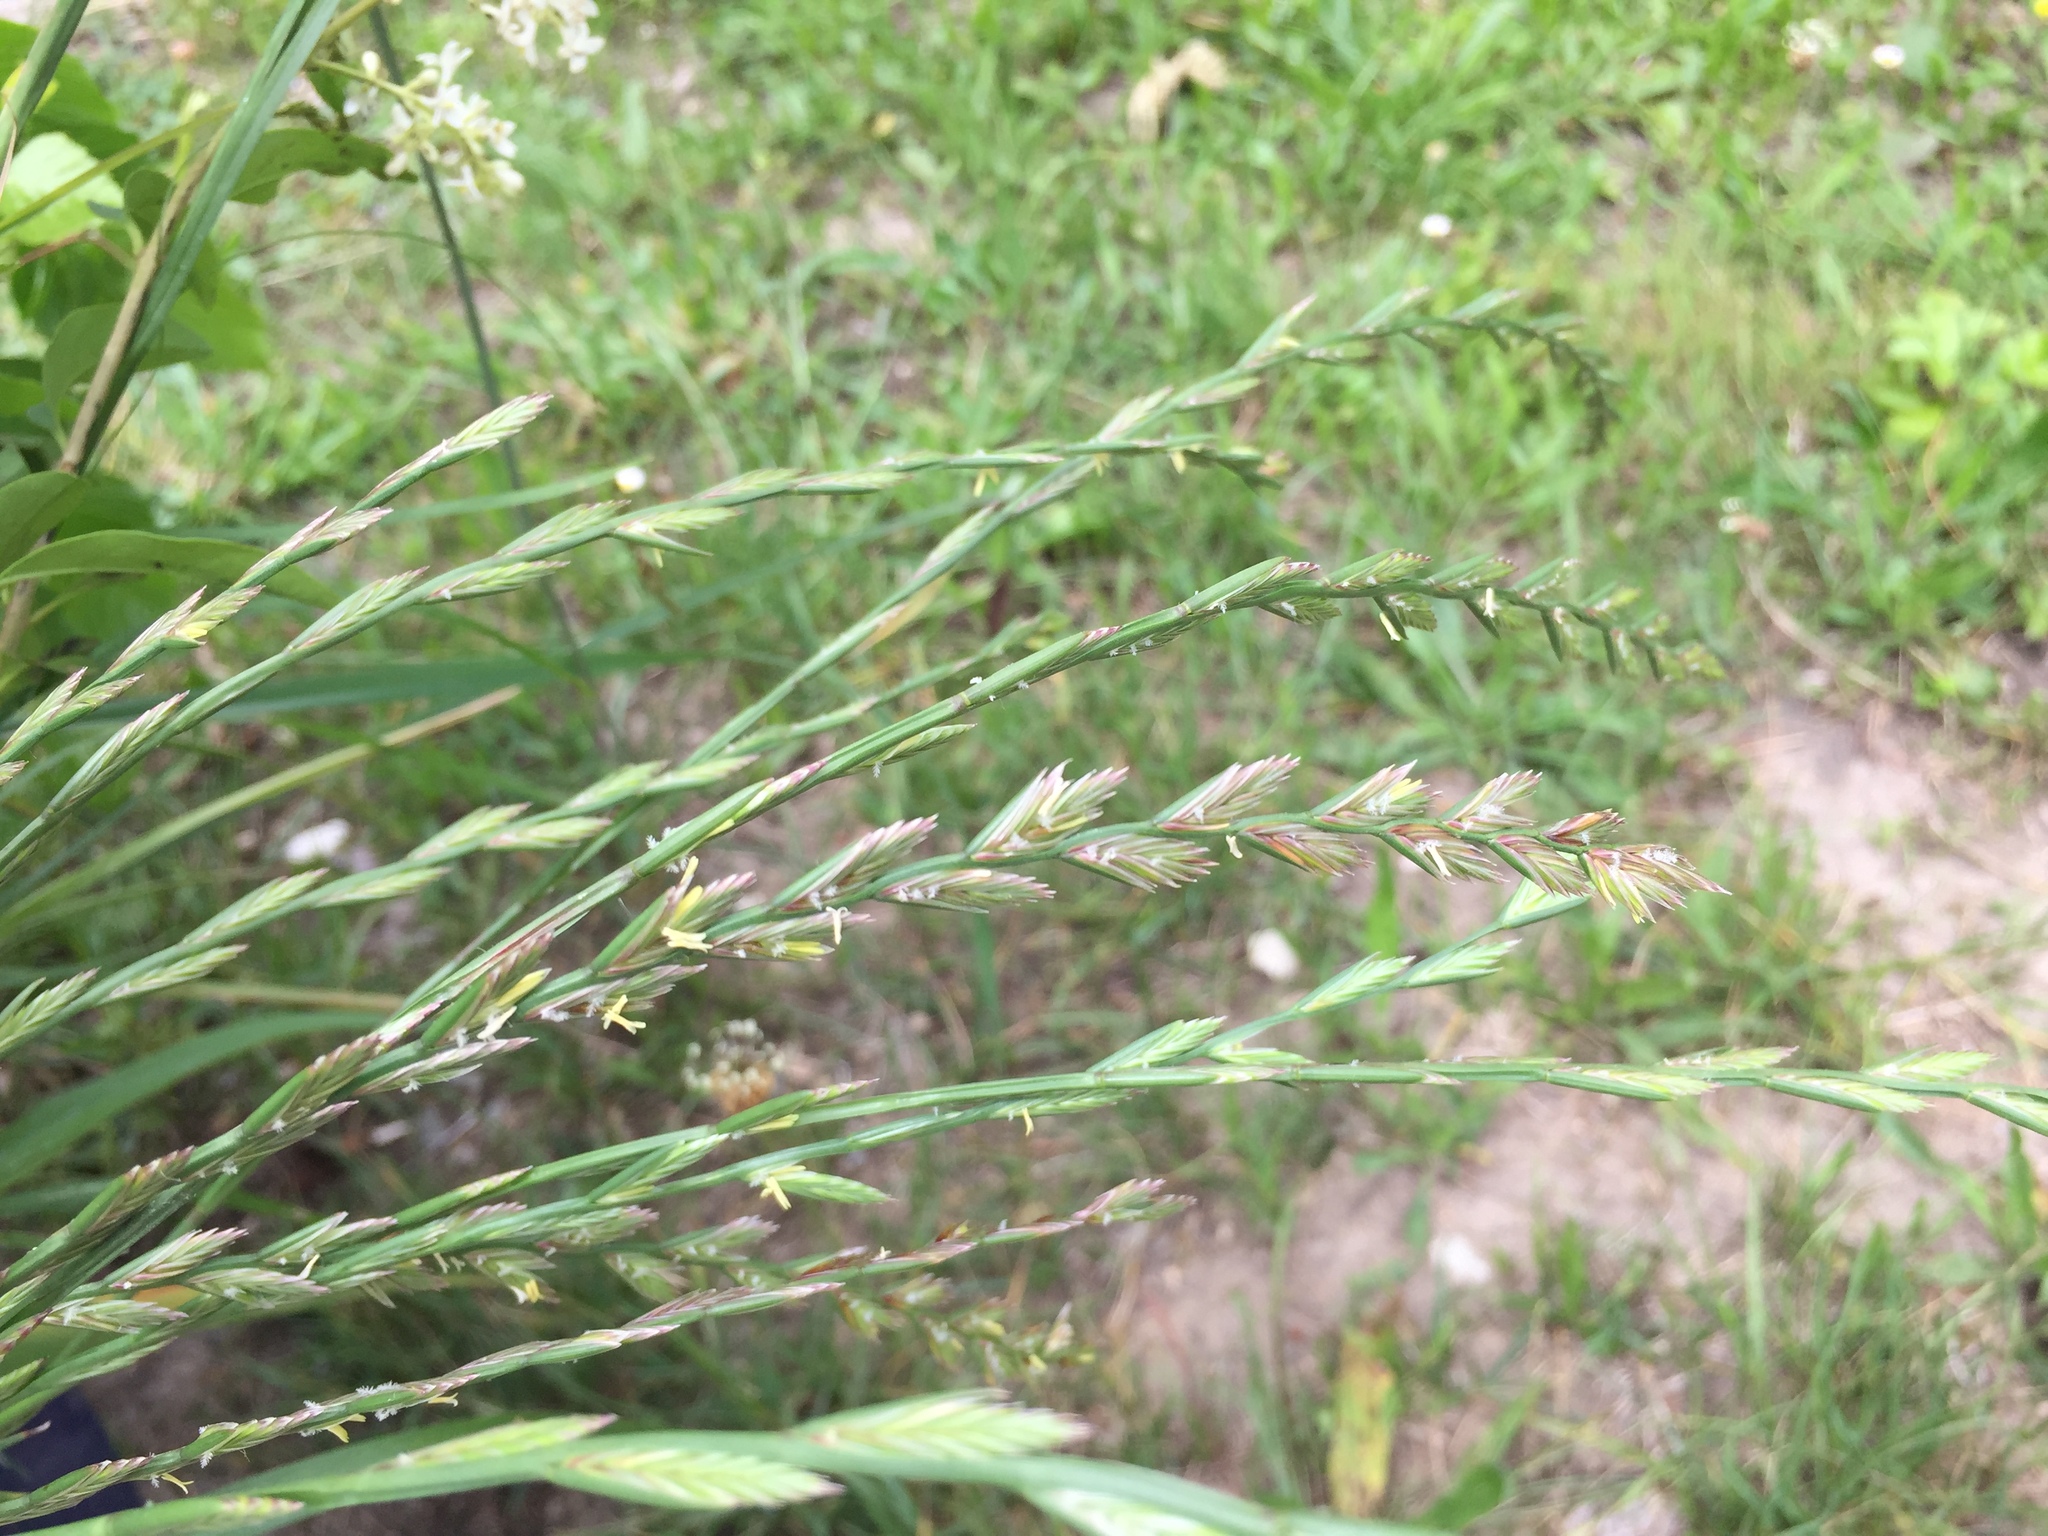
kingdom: Plantae
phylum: Tracheophyta
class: Liliopsida
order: Poales
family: Poaceae
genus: Lolium
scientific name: Lolium perenne
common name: Perennial ryegrass
